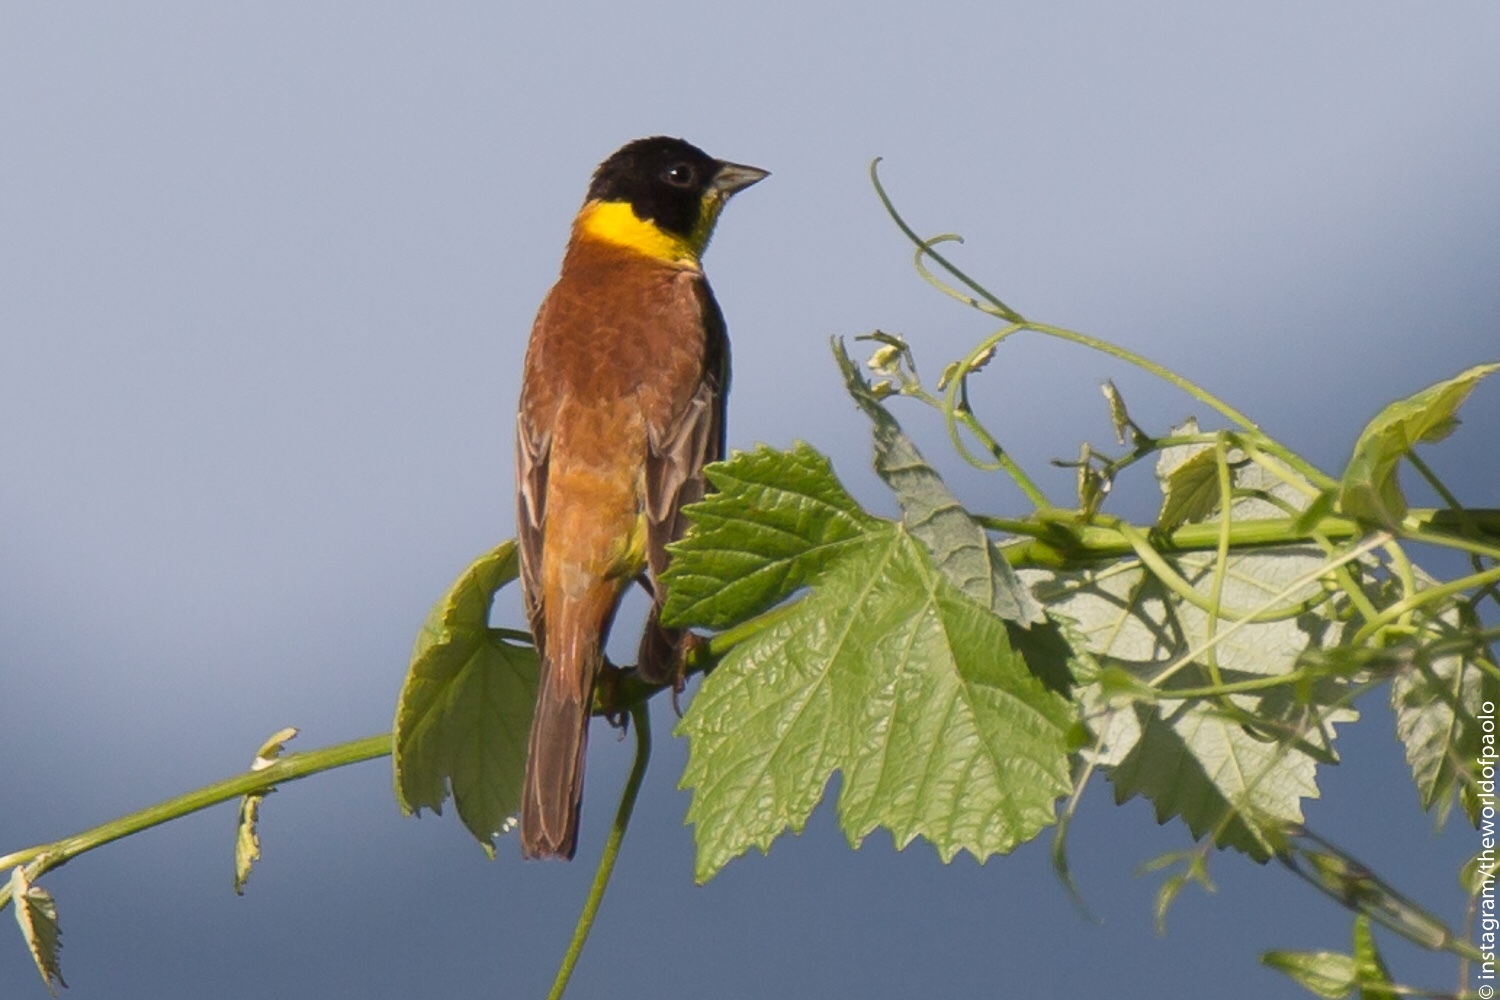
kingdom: Animalia
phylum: Chordata
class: Aves
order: Passeriformes
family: Emberizidae
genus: Emberiza
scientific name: Emberiza melanocephala
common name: Black-headed bunting
